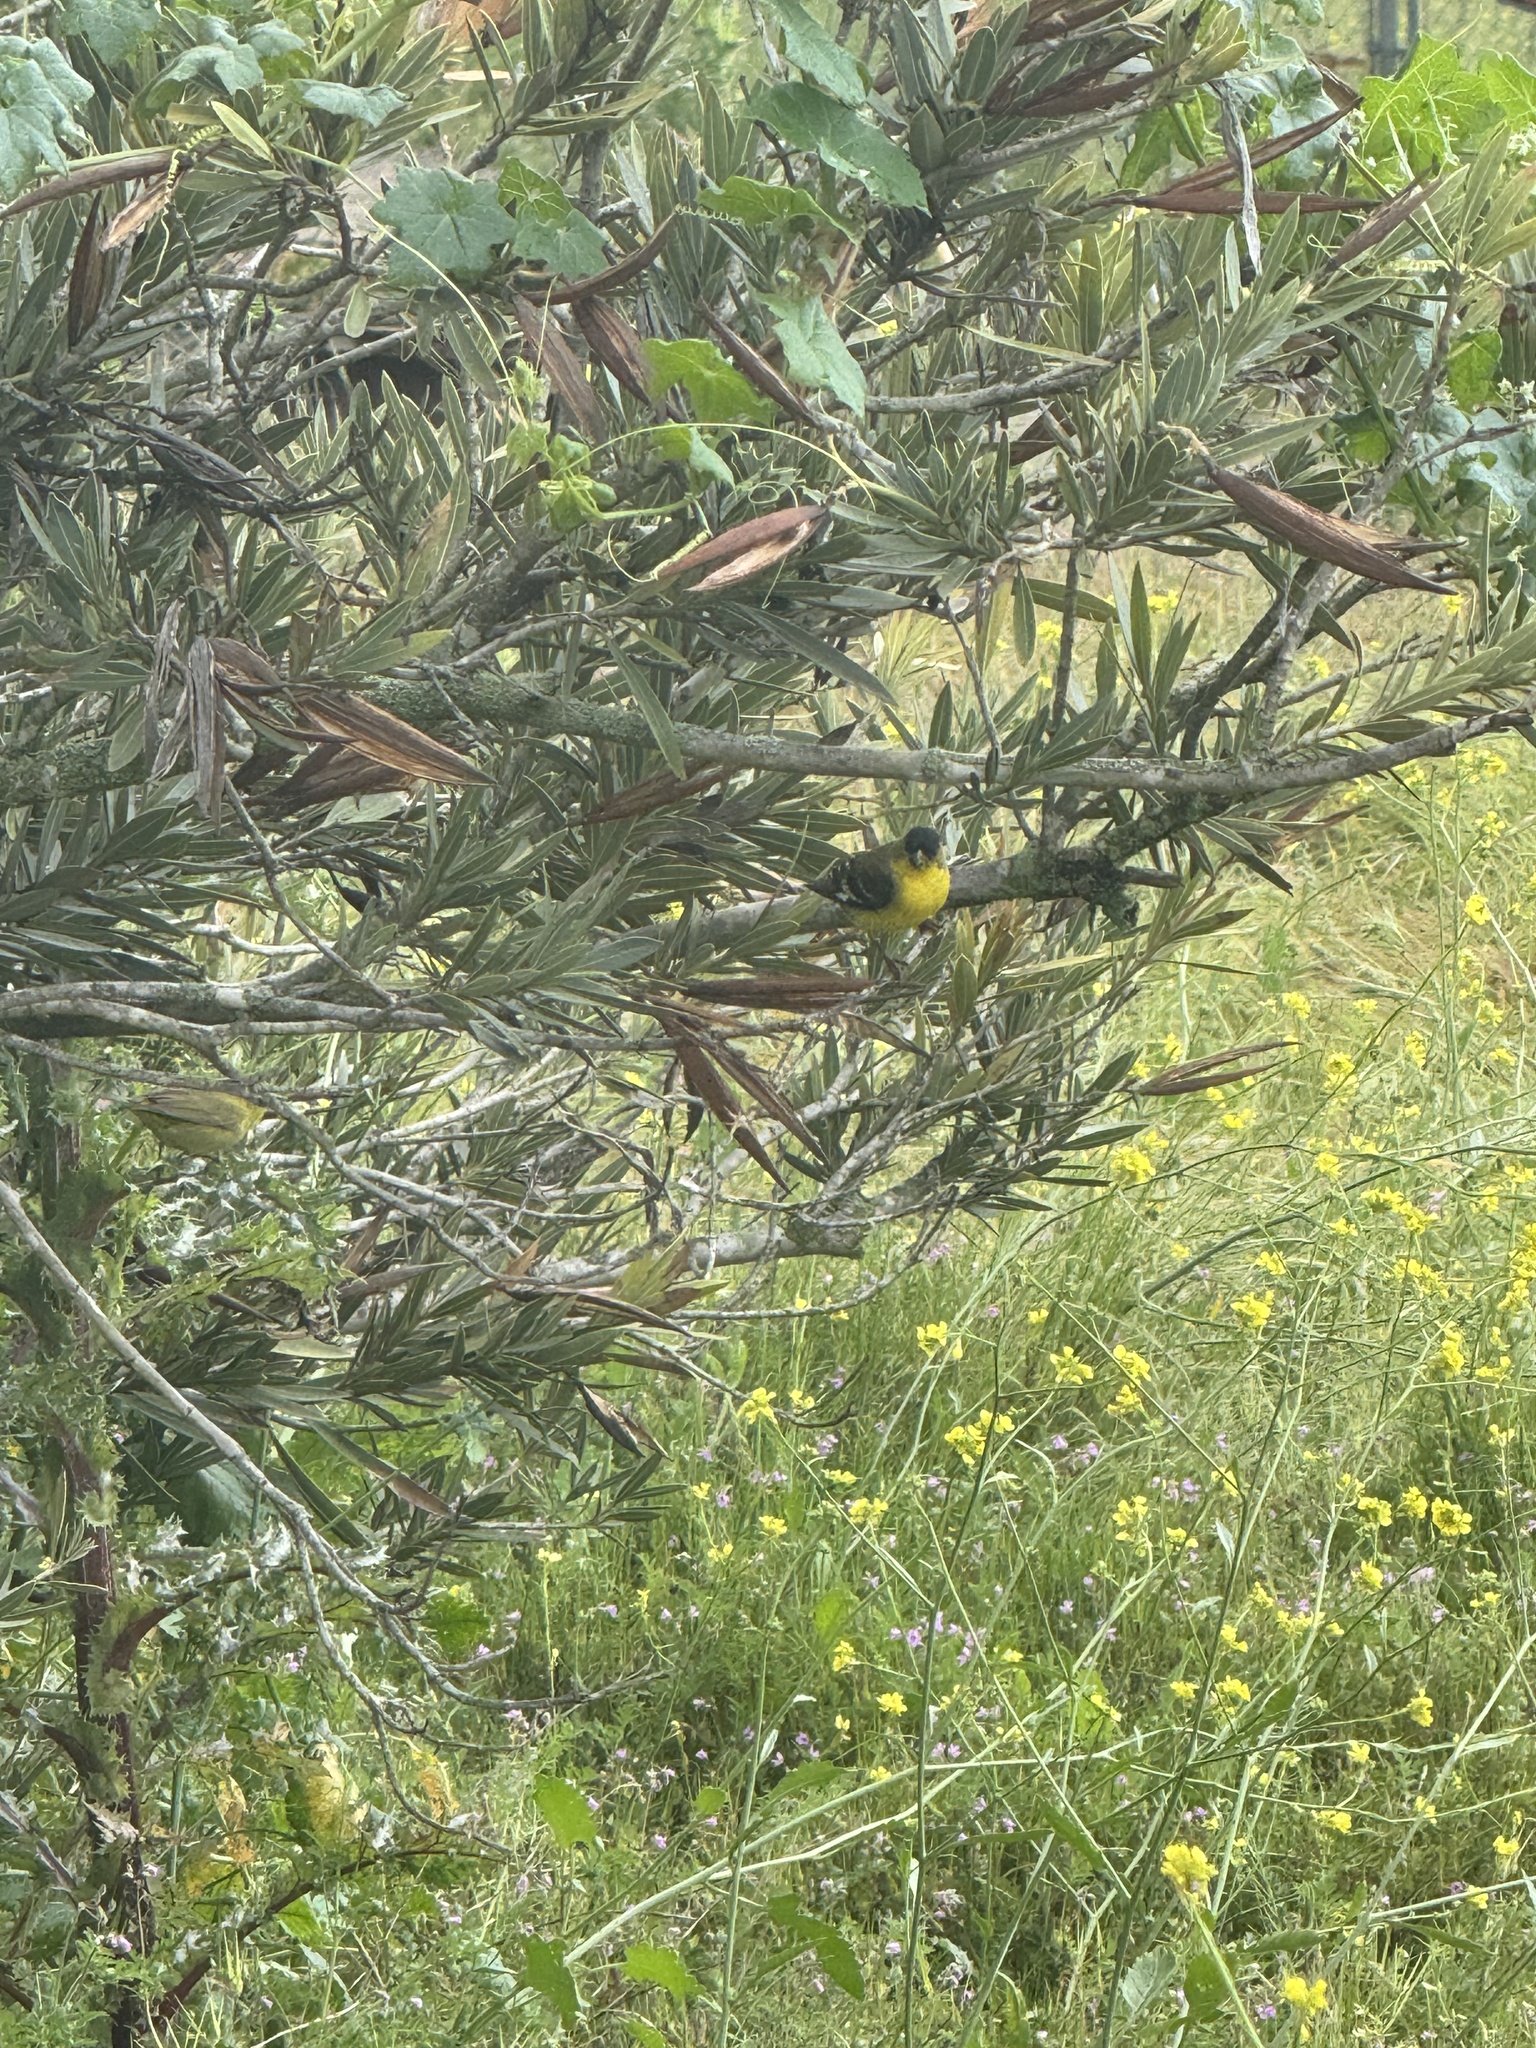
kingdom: Animalia
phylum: Chordata
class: Aves
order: Passeriformes
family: Fringillidae
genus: Spinus
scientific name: Spinus psaltria
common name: Lesser goldfinch
